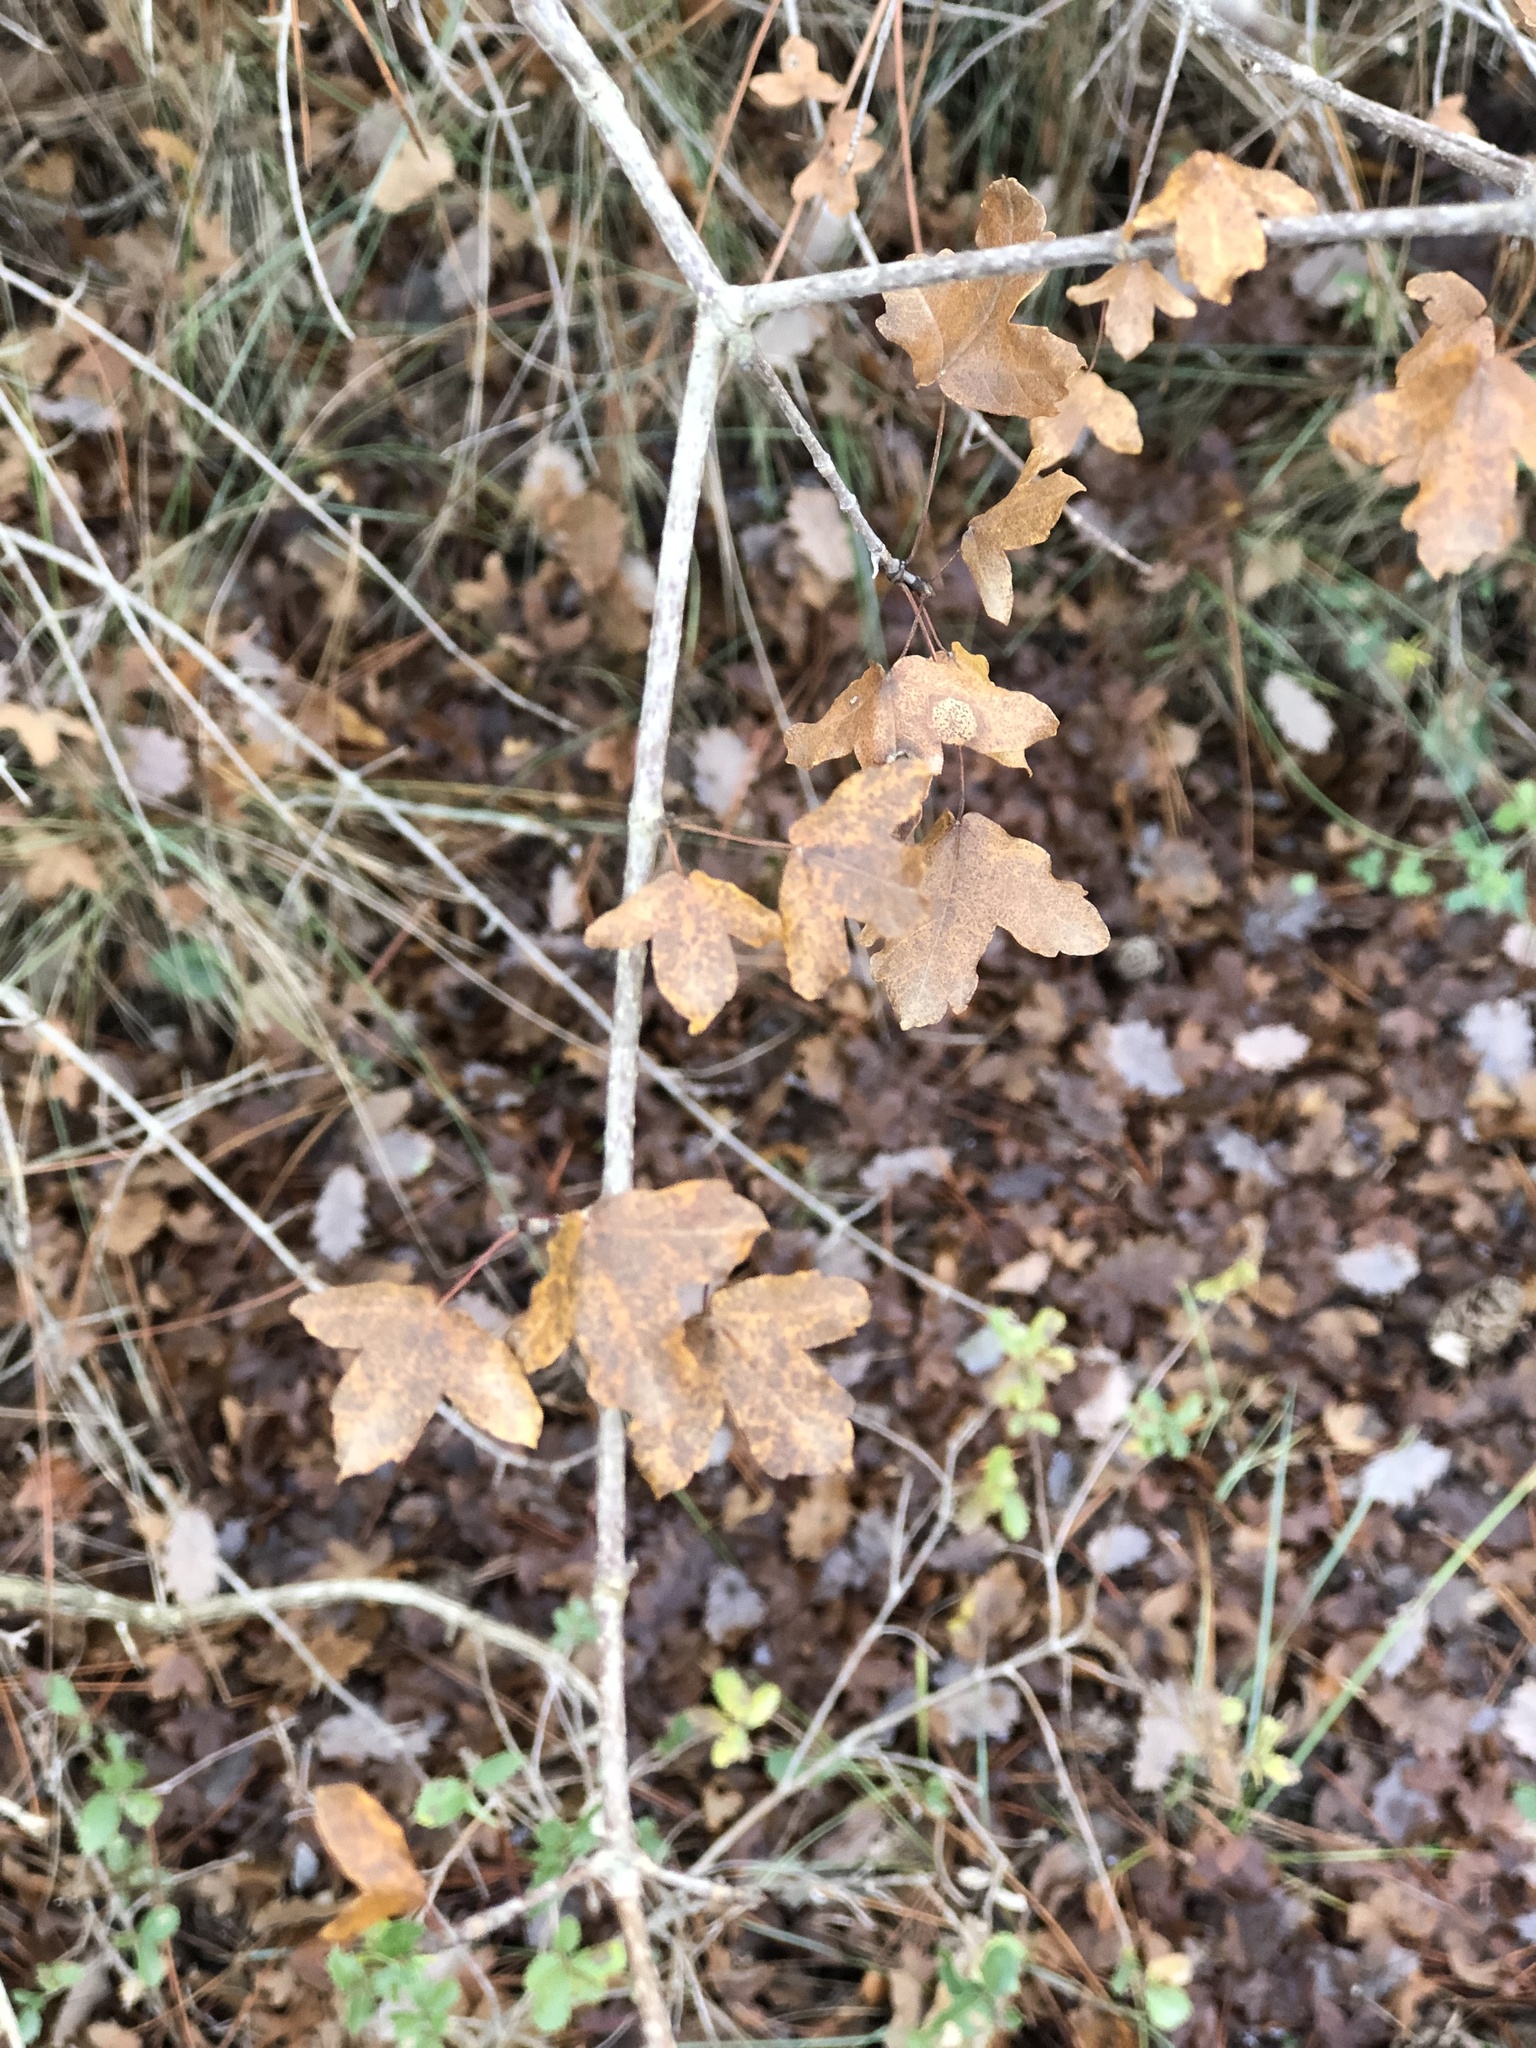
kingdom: Plantae
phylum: Tracheophyta
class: Magnoliopsida
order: Sapindales
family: Sapindaceae
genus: Acer
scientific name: Acer monspessulanum
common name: Montpellier maple
